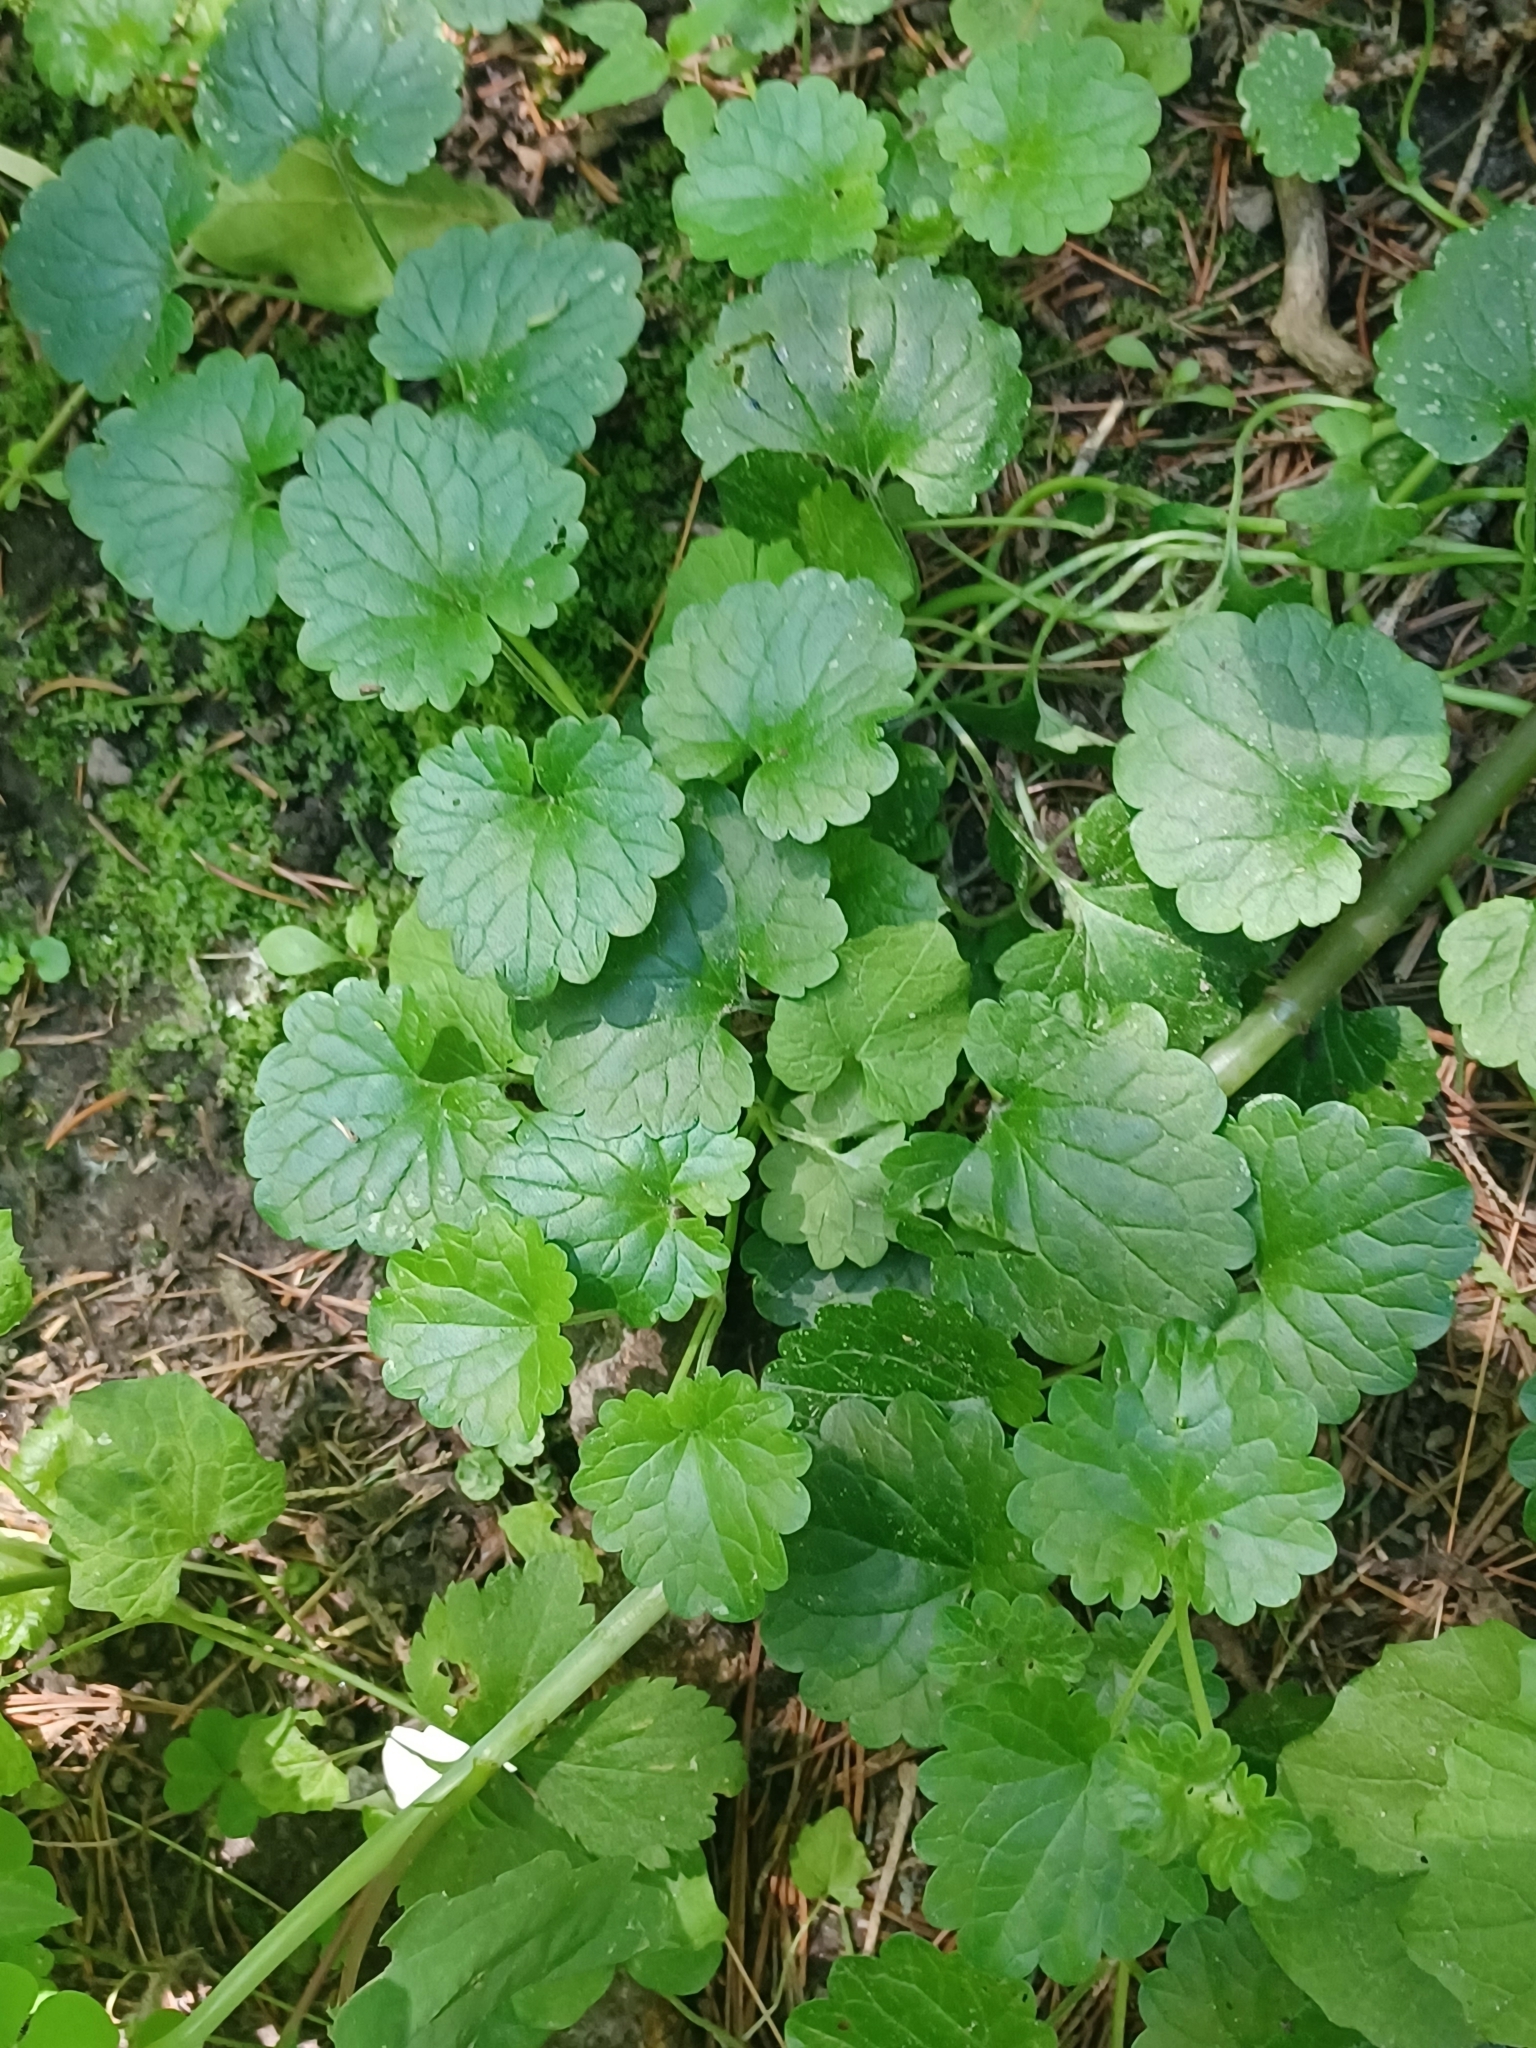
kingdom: Plantae
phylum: Tracheophyta
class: Magnoliopsida
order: Lamiales
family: Lamiaceae
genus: Glechoma
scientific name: Glechoma hederacea
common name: Ground ivy
